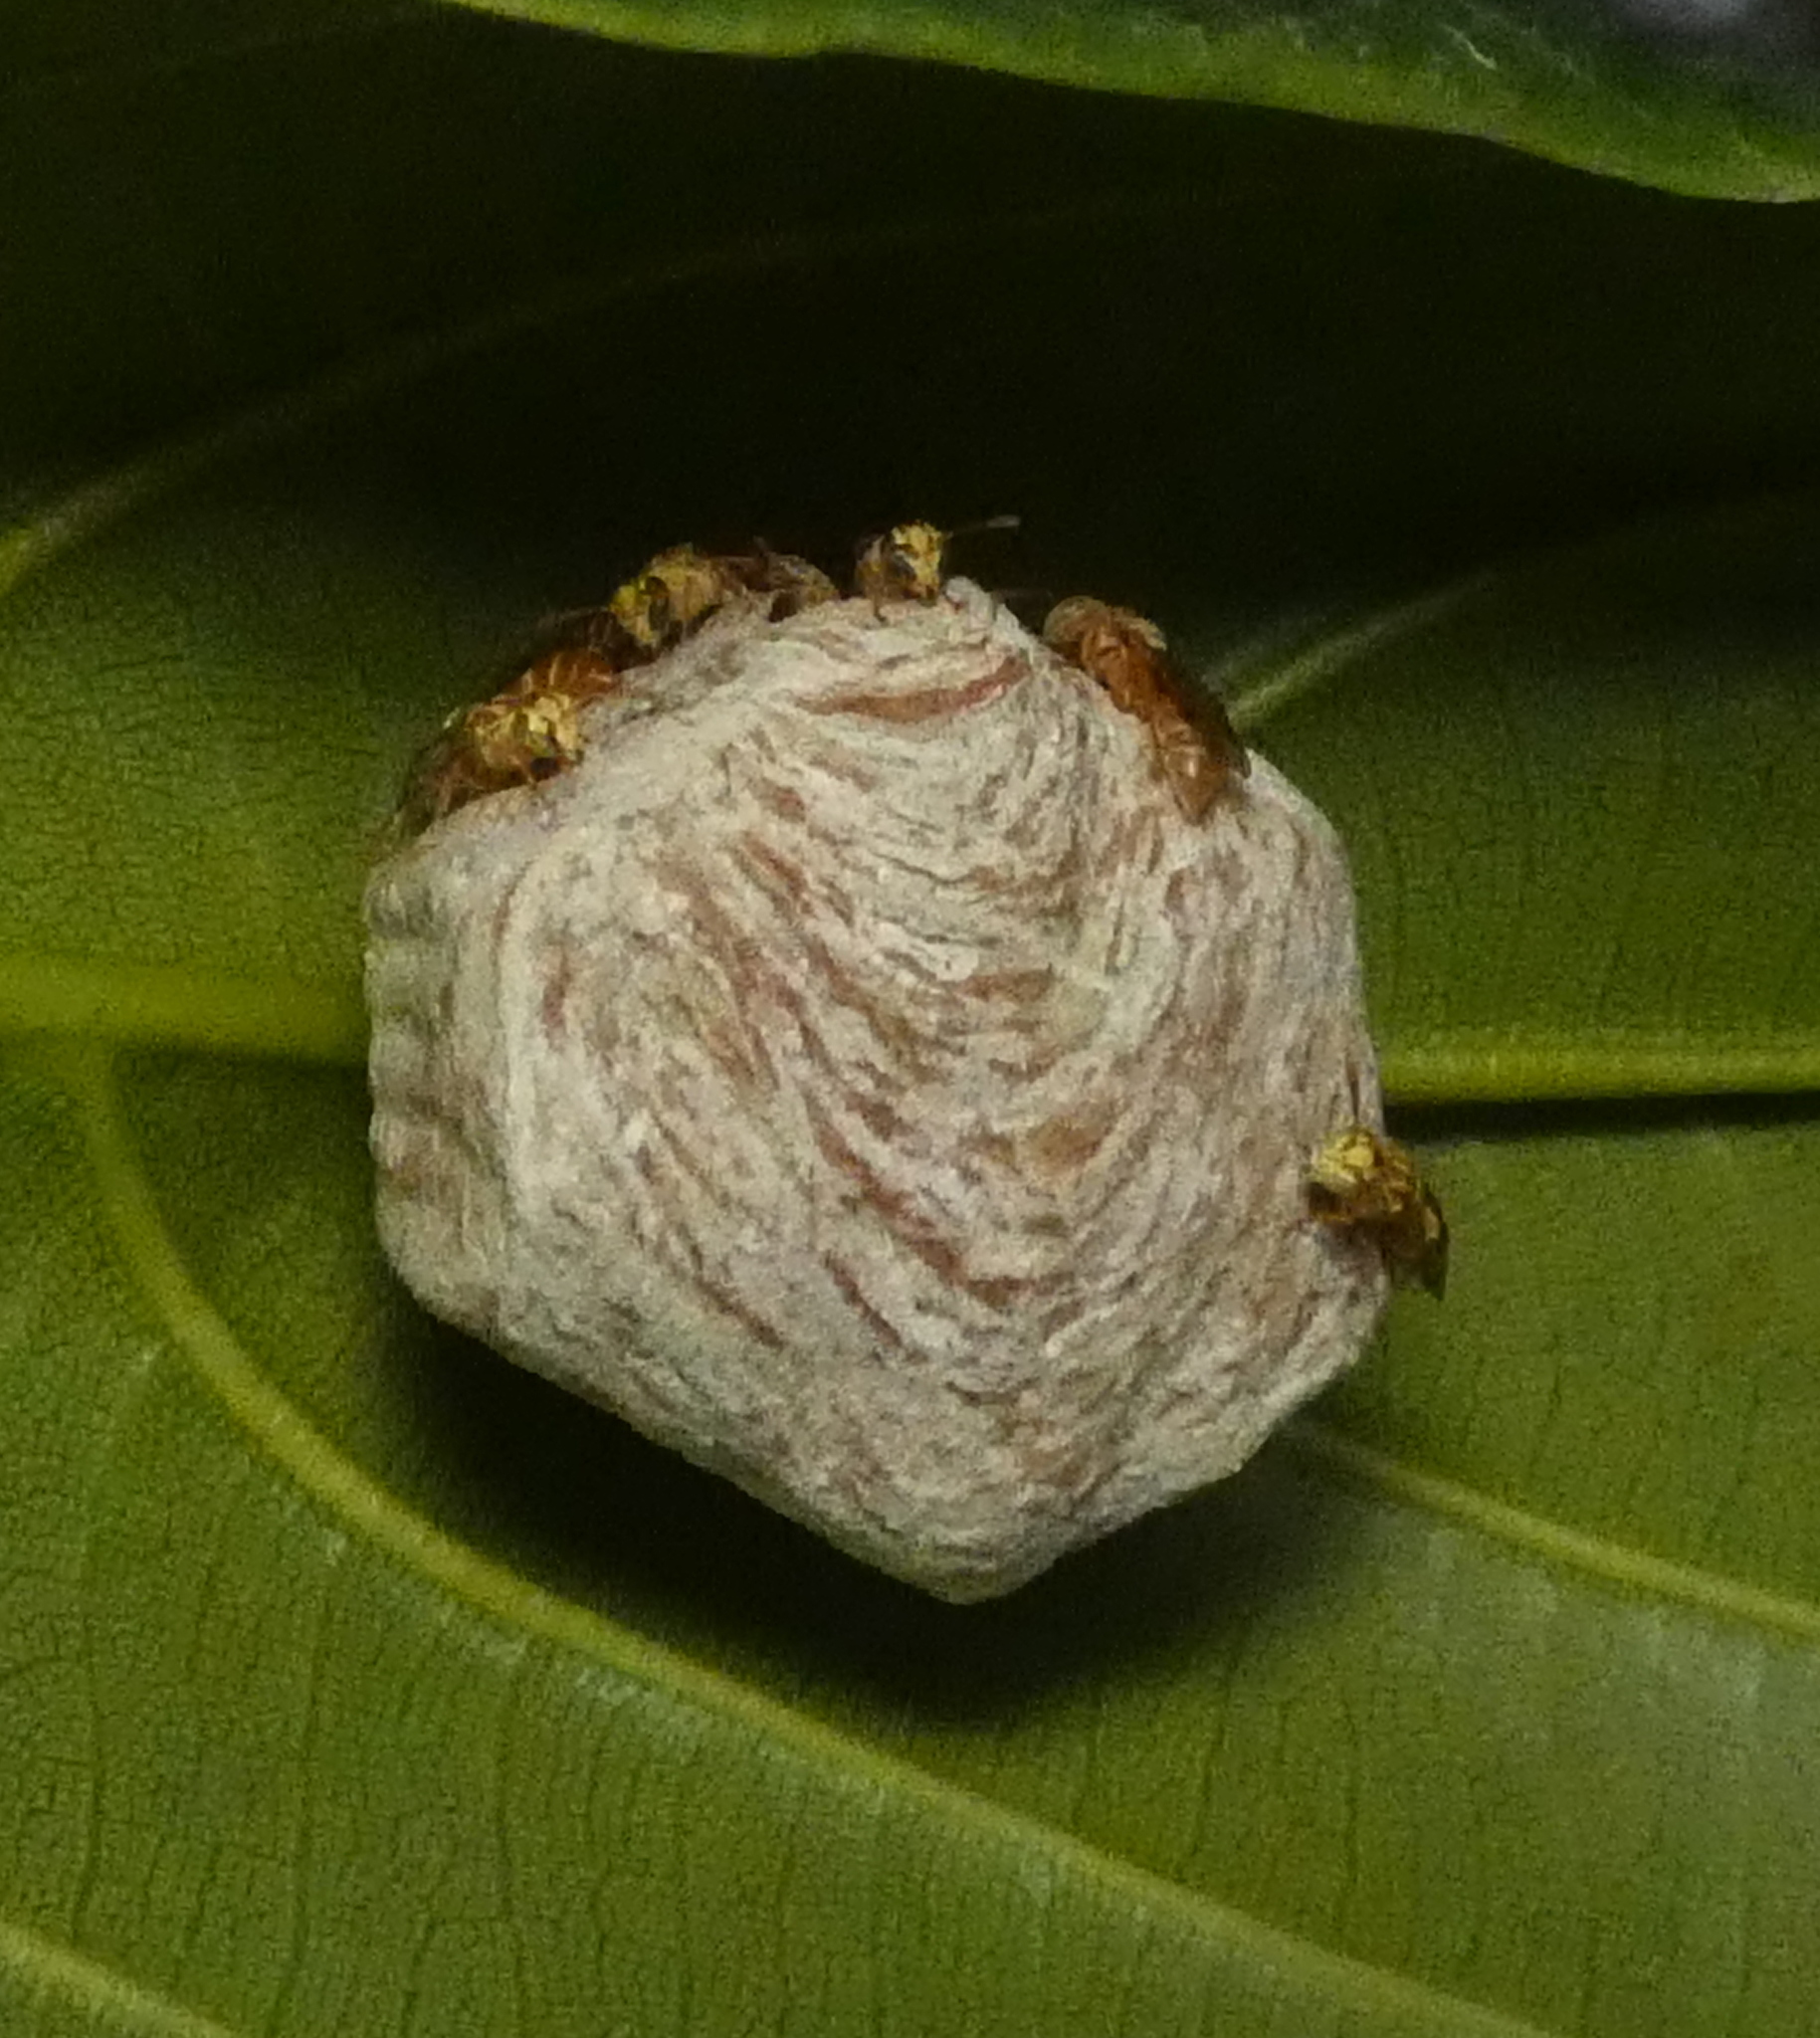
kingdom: Animalia
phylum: Arthropoda
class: Insecta
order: Hymenoptera
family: Vespidae
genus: Protopolybia
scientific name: Protopolybia potiguara
